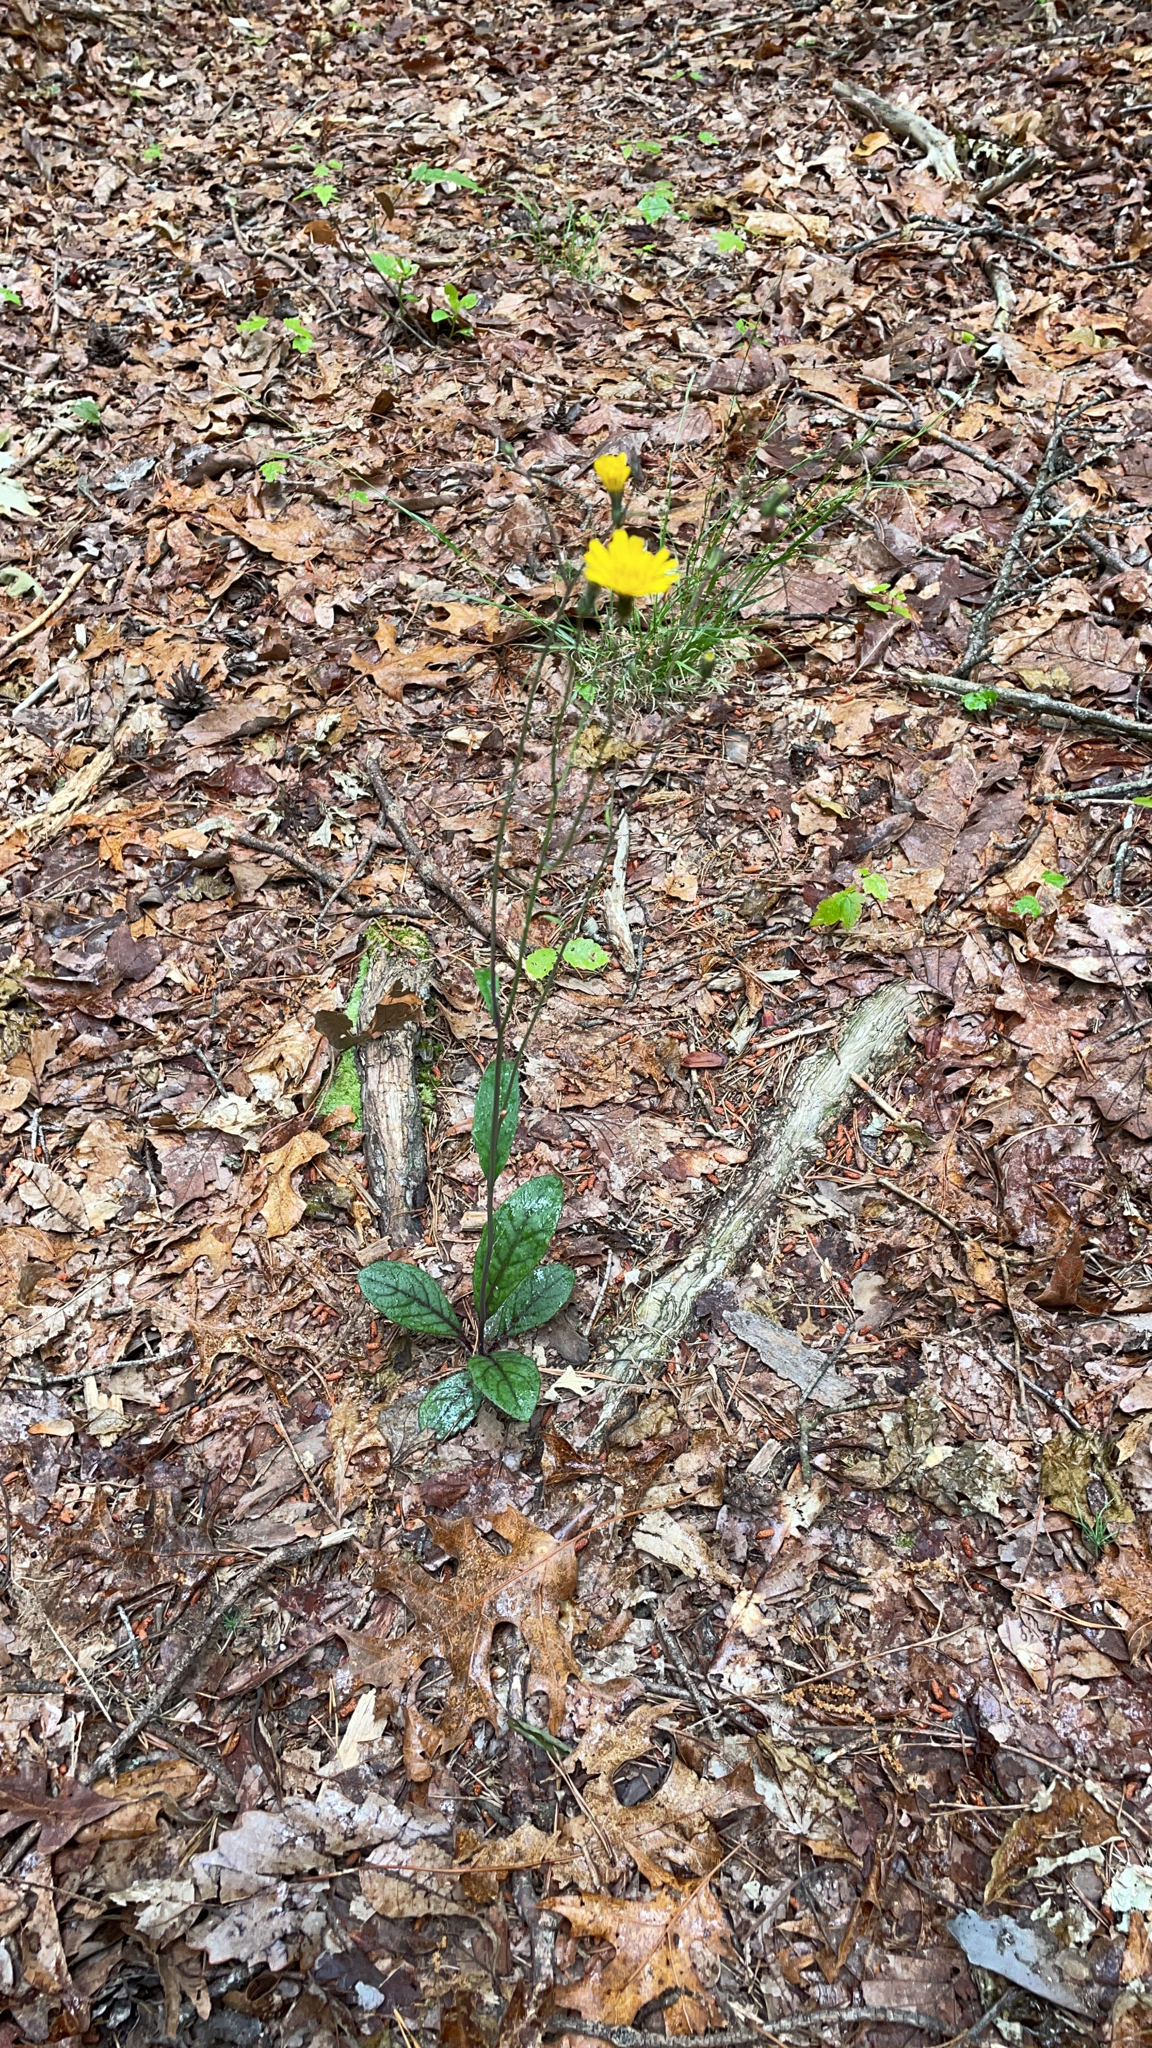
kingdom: Plantae
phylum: Tracheophyta
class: Magnoliopsida
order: Asterales
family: Asteraceae
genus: Hieracium
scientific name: Hieracium venosum
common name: Rattlesnake hawkweed
